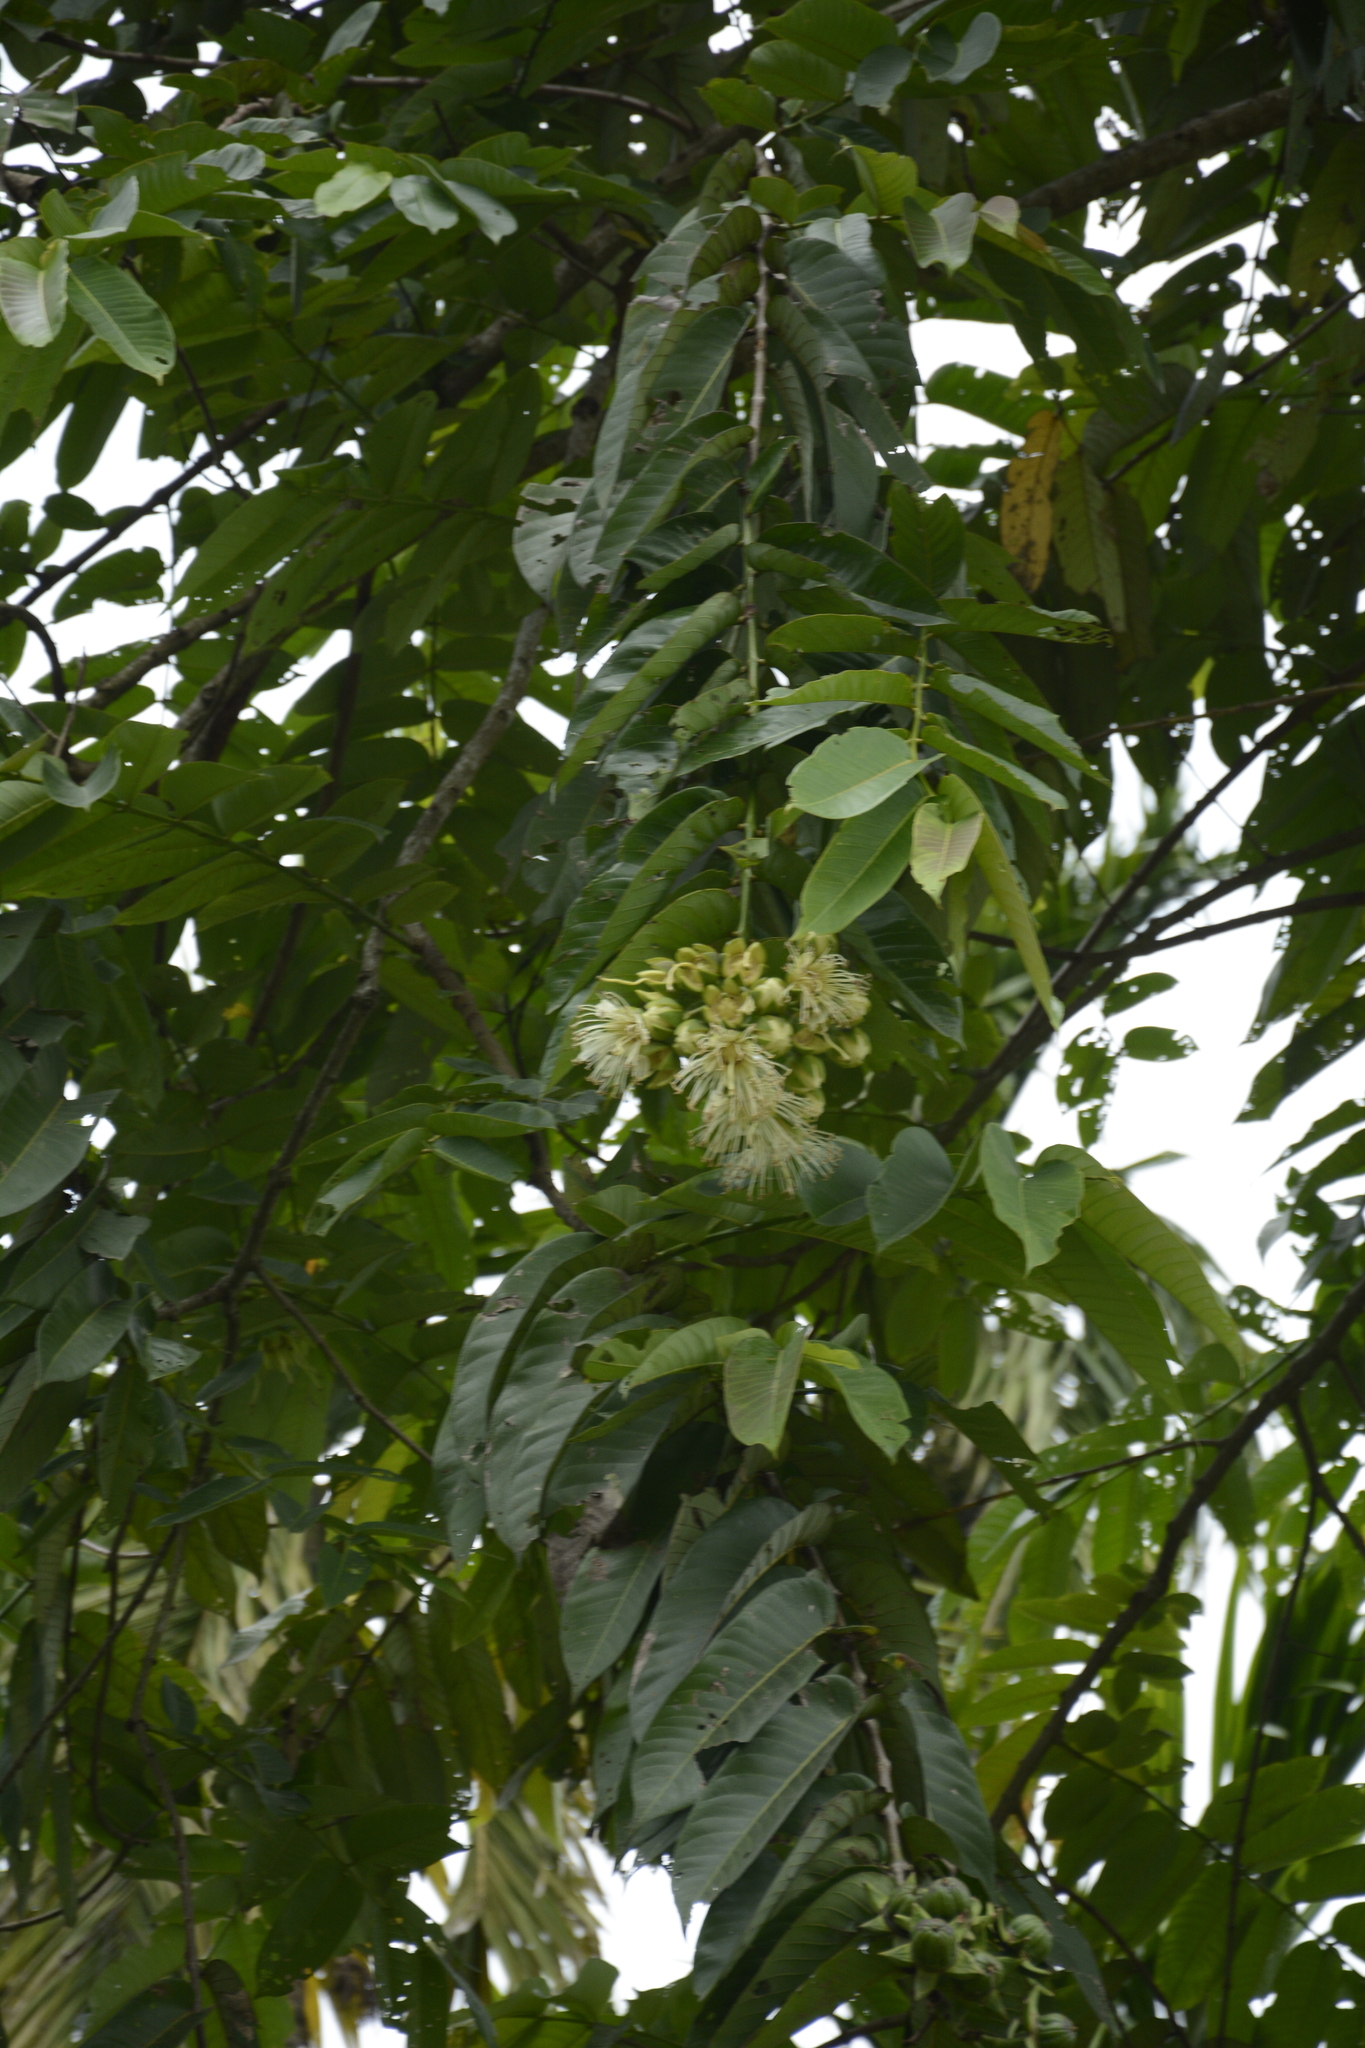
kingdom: Plantae
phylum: Tracheophyta
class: Magnoliopsida
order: Myrtales
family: Lythraceae
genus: Duabanga
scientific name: Duabanga grandiflora
